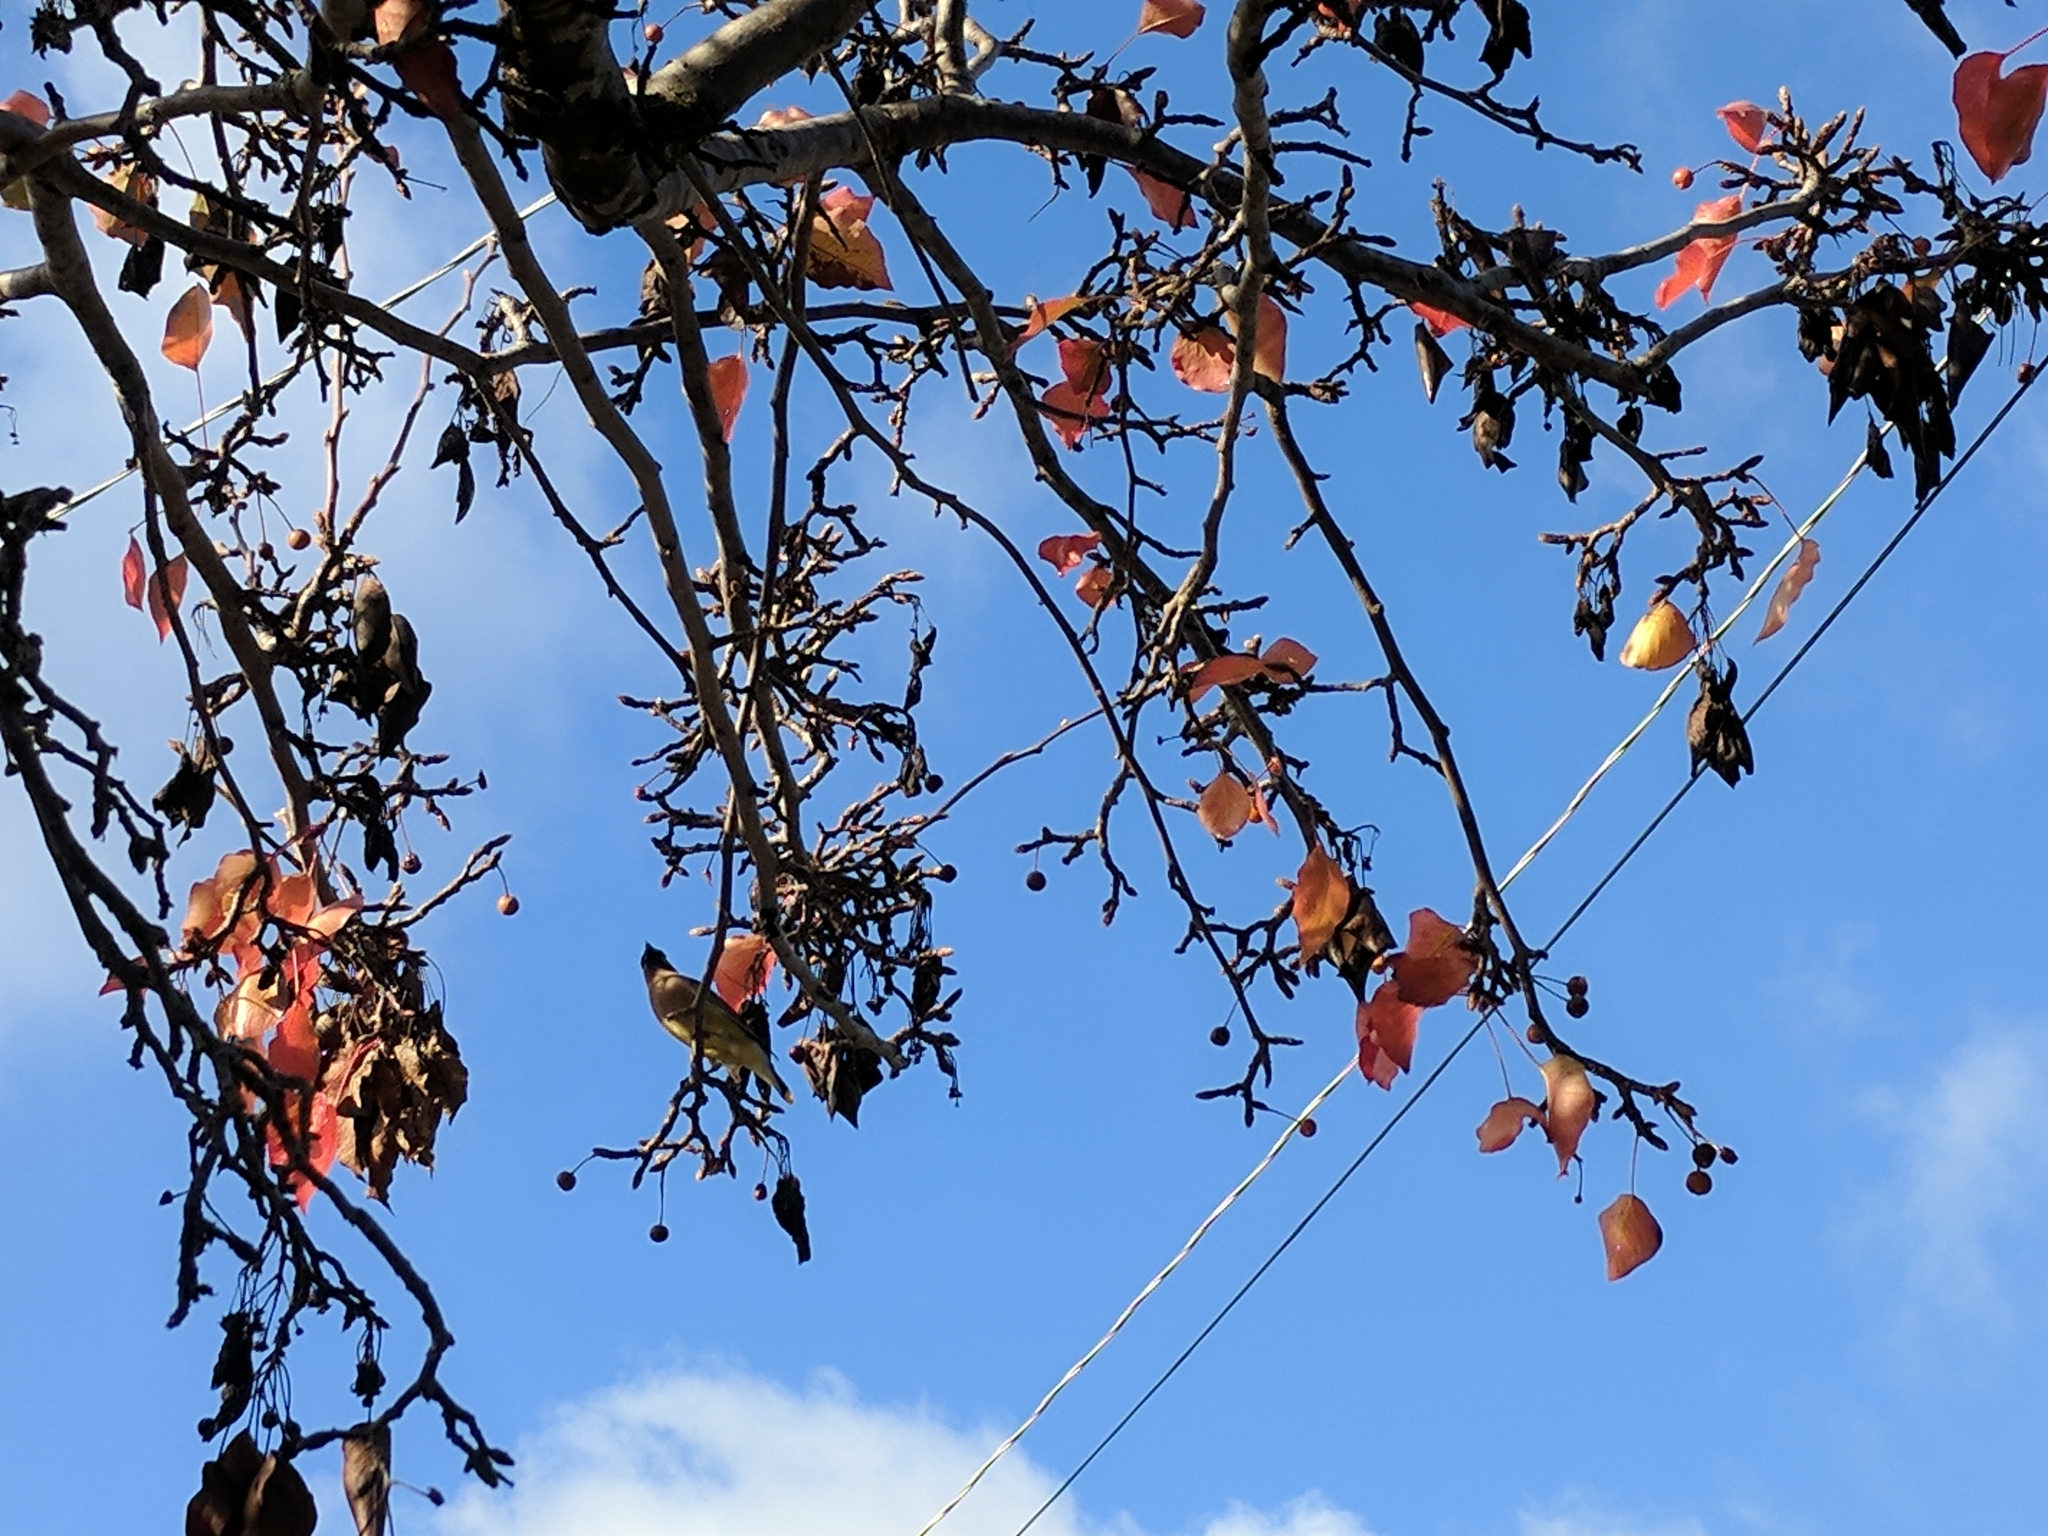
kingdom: Animalia
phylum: Chordata
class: Aves
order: Passeriformes
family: Bombycillidae
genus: Bombycilla
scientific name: Bombycilla cedrorum
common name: Cedar waxwing
